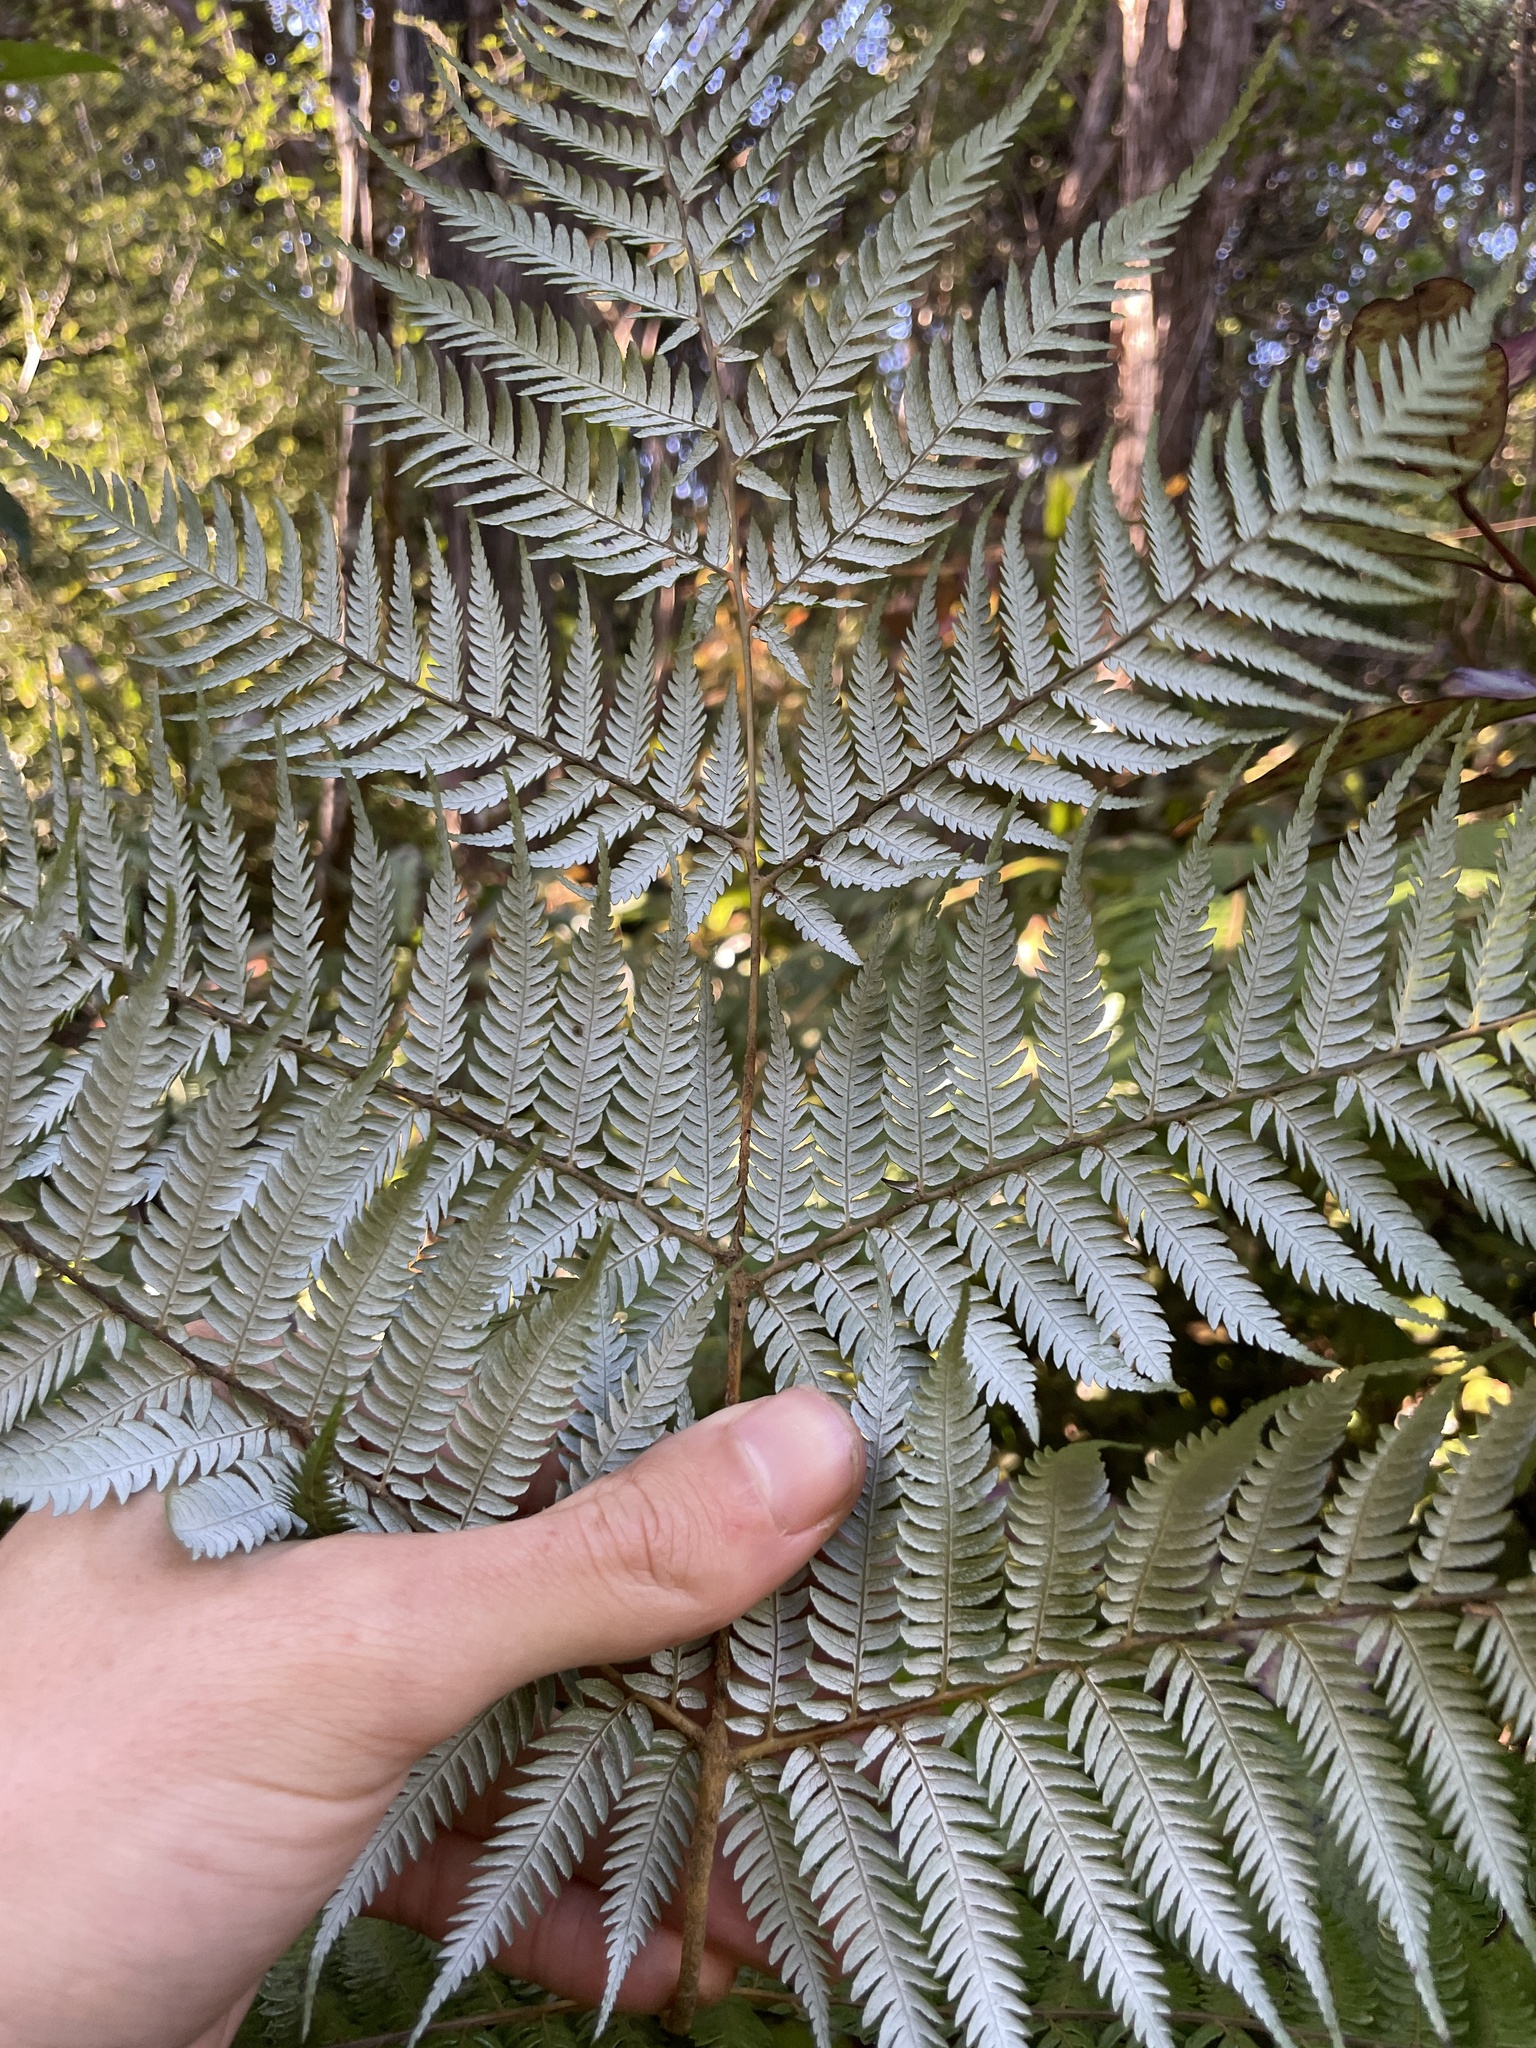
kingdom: Plantae
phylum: Tracheophyta
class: Polypodiopsida
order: Cyatheales
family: Cyatheaceae
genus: Alsophila
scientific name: Alsophila dealbata
